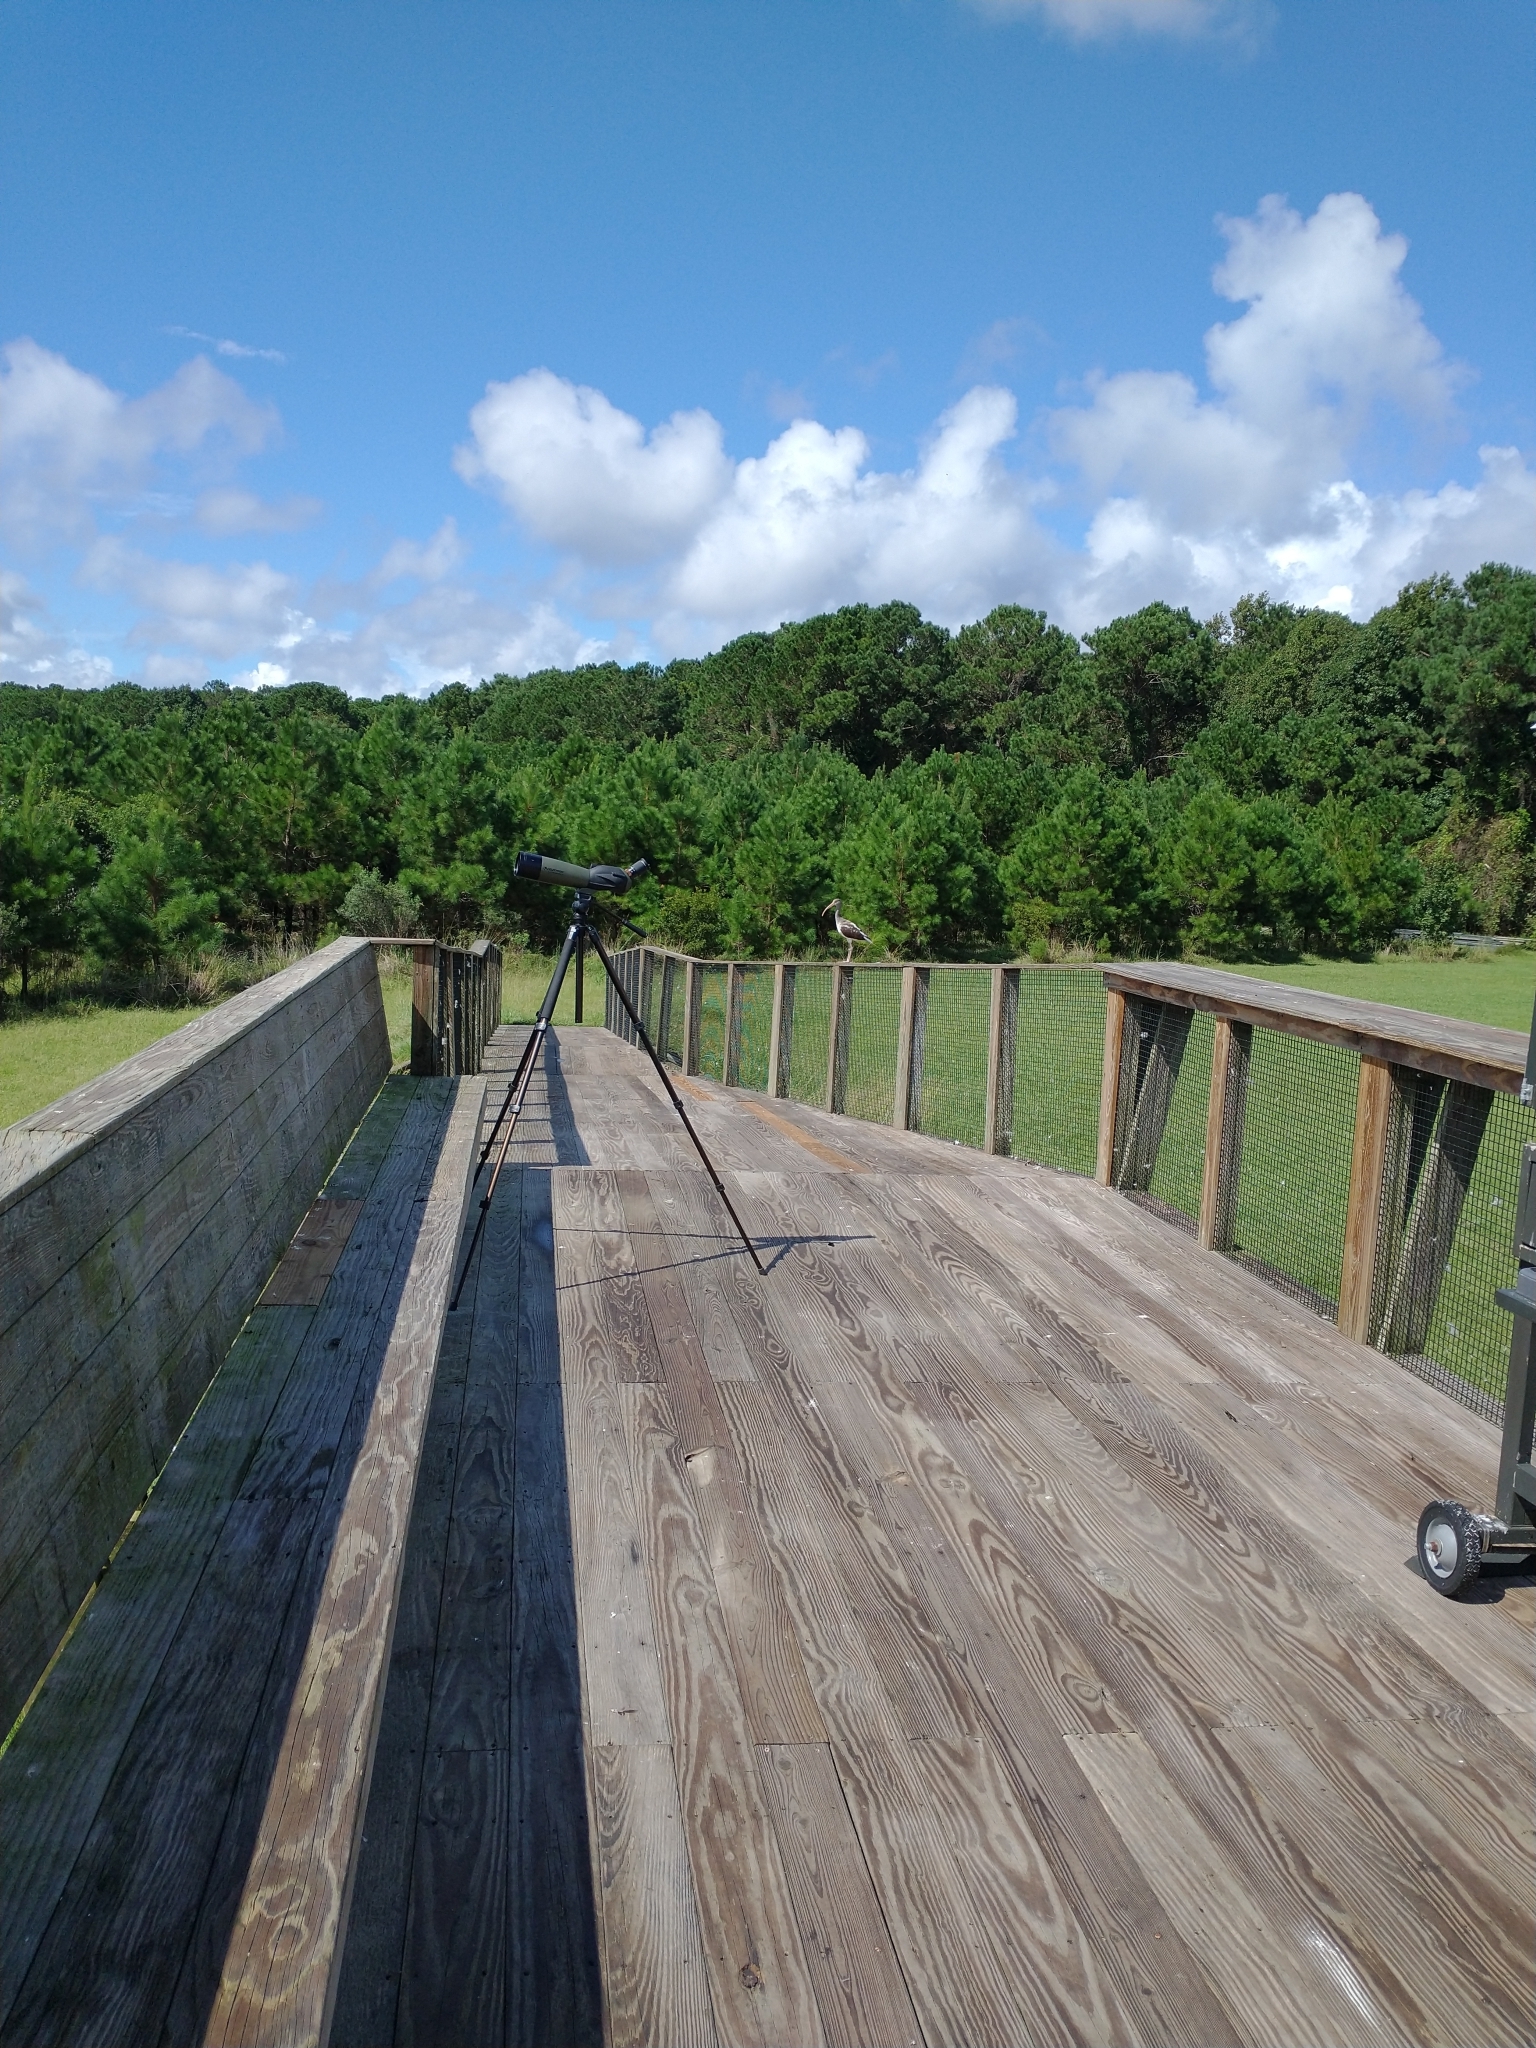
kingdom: Animalia
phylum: Chordata
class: Aves
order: Pelecaniformes
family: Threskiornithidae
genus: Eudocimus
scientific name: Eudocimus albus
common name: White ibis
